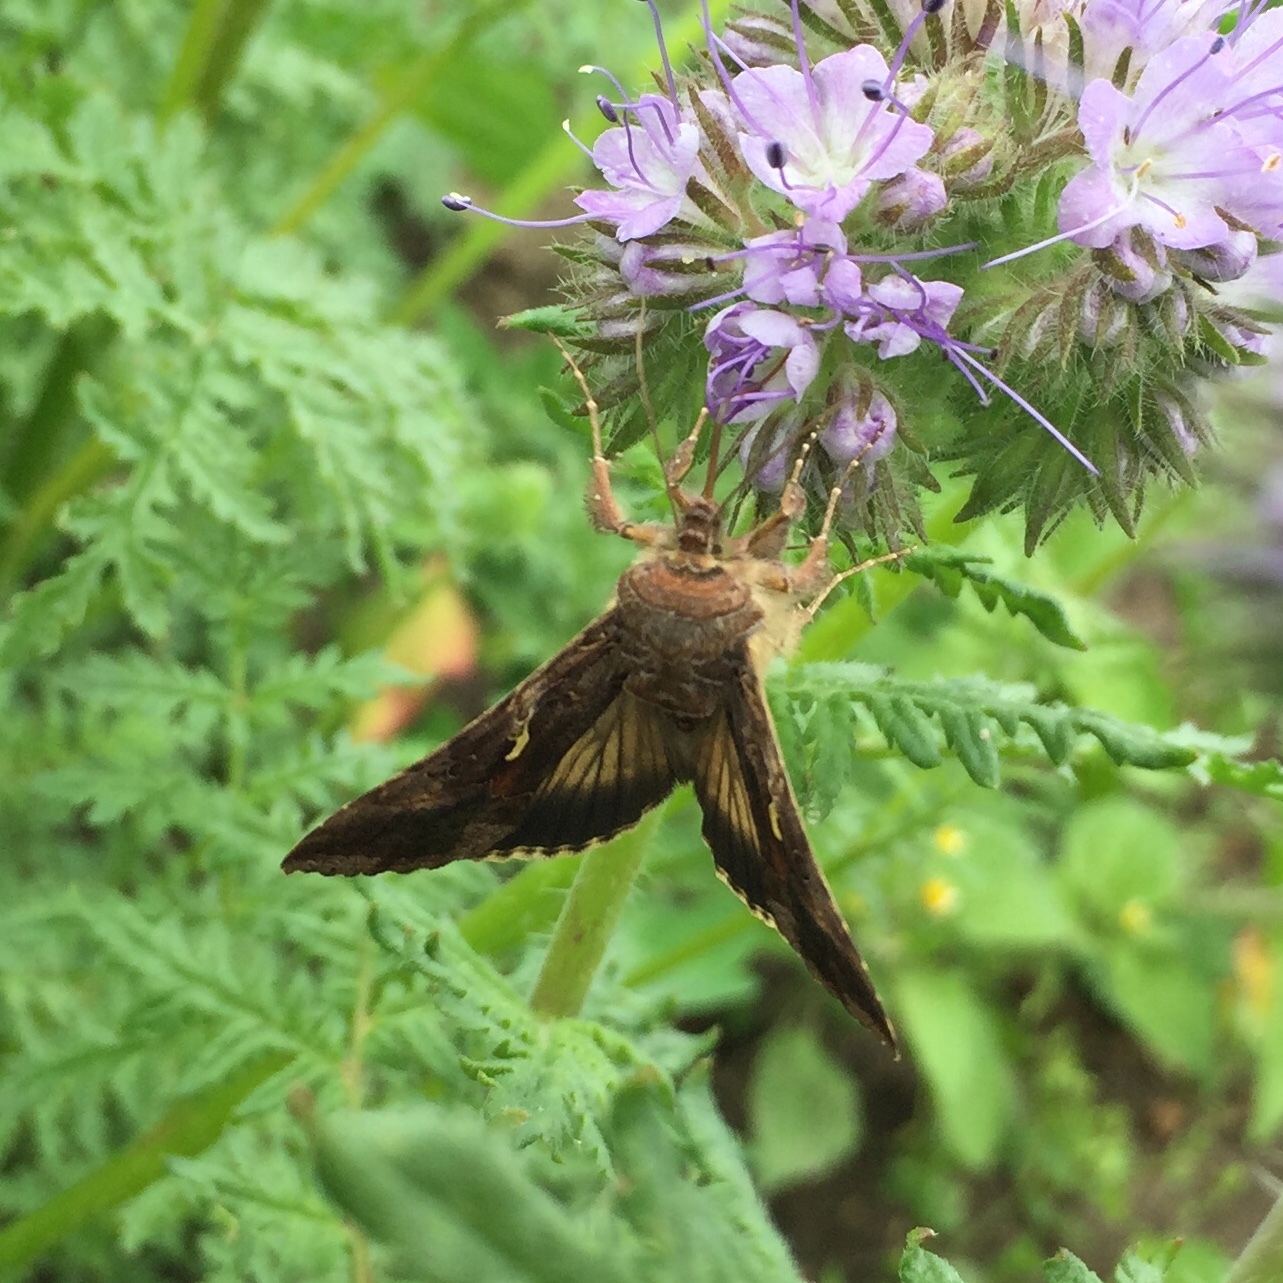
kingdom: Animalia
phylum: Arthropoda
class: Insecta
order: Lepidoptera
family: Noctuidae
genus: Autographa
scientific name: Autographa gamma
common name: Silver y
